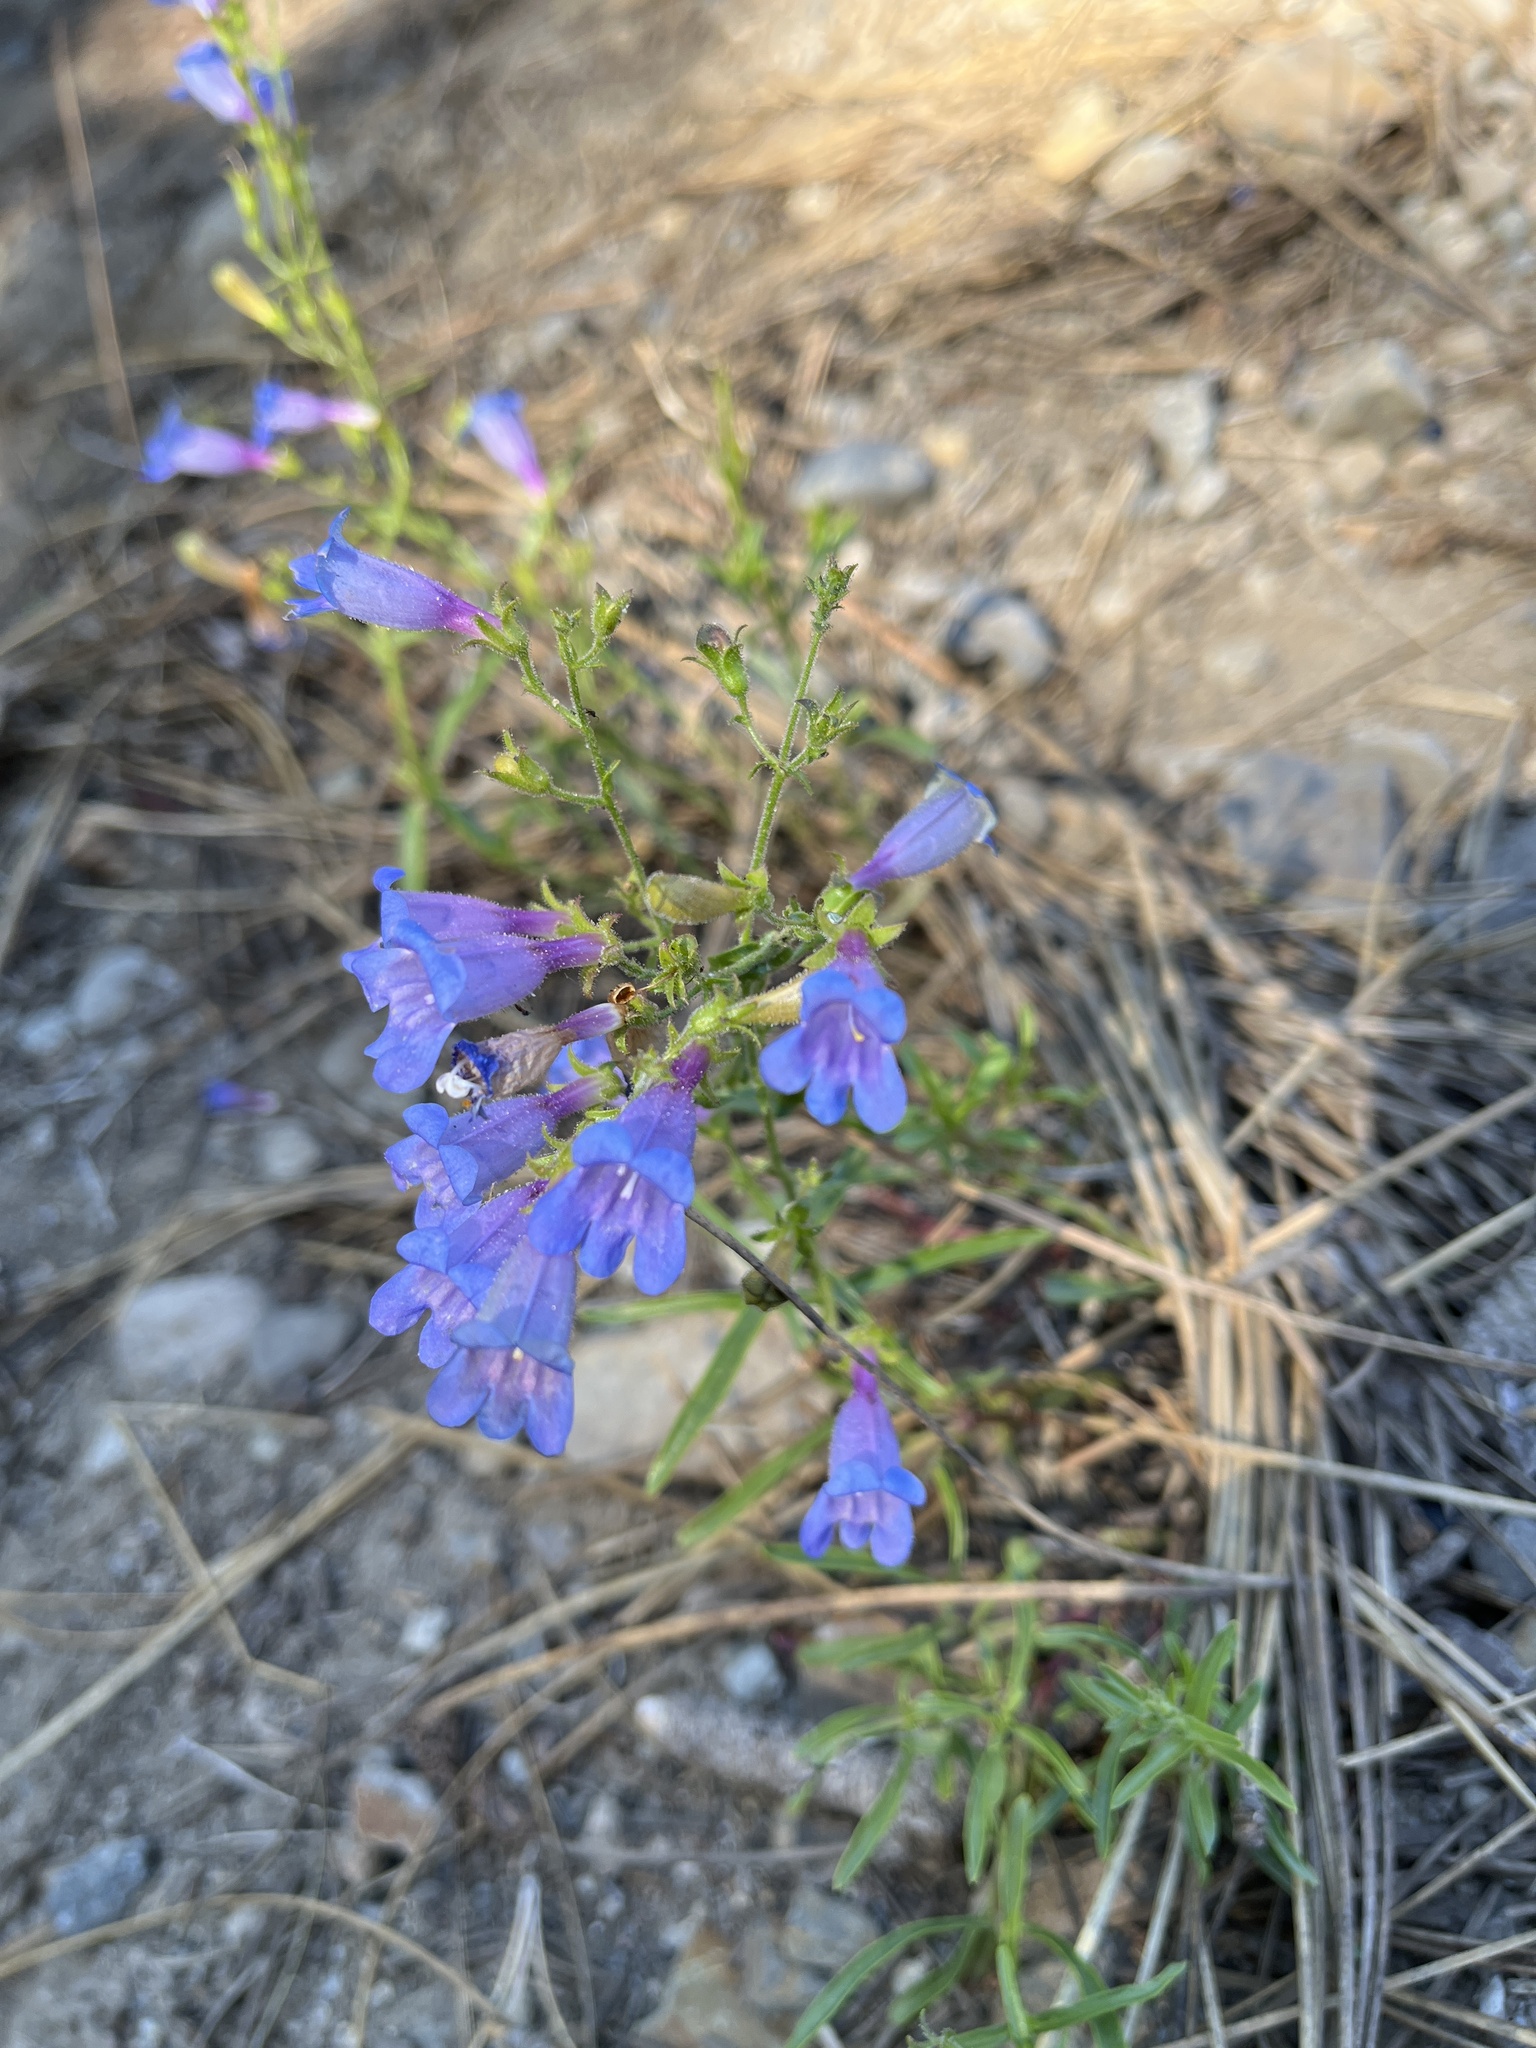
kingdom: Plantae
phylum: Tracheophyta
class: Magnoliopsida
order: Lamiales
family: Plantaginaceae
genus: Penstemon
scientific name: Penstemon laetus
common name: Gay penstemon
